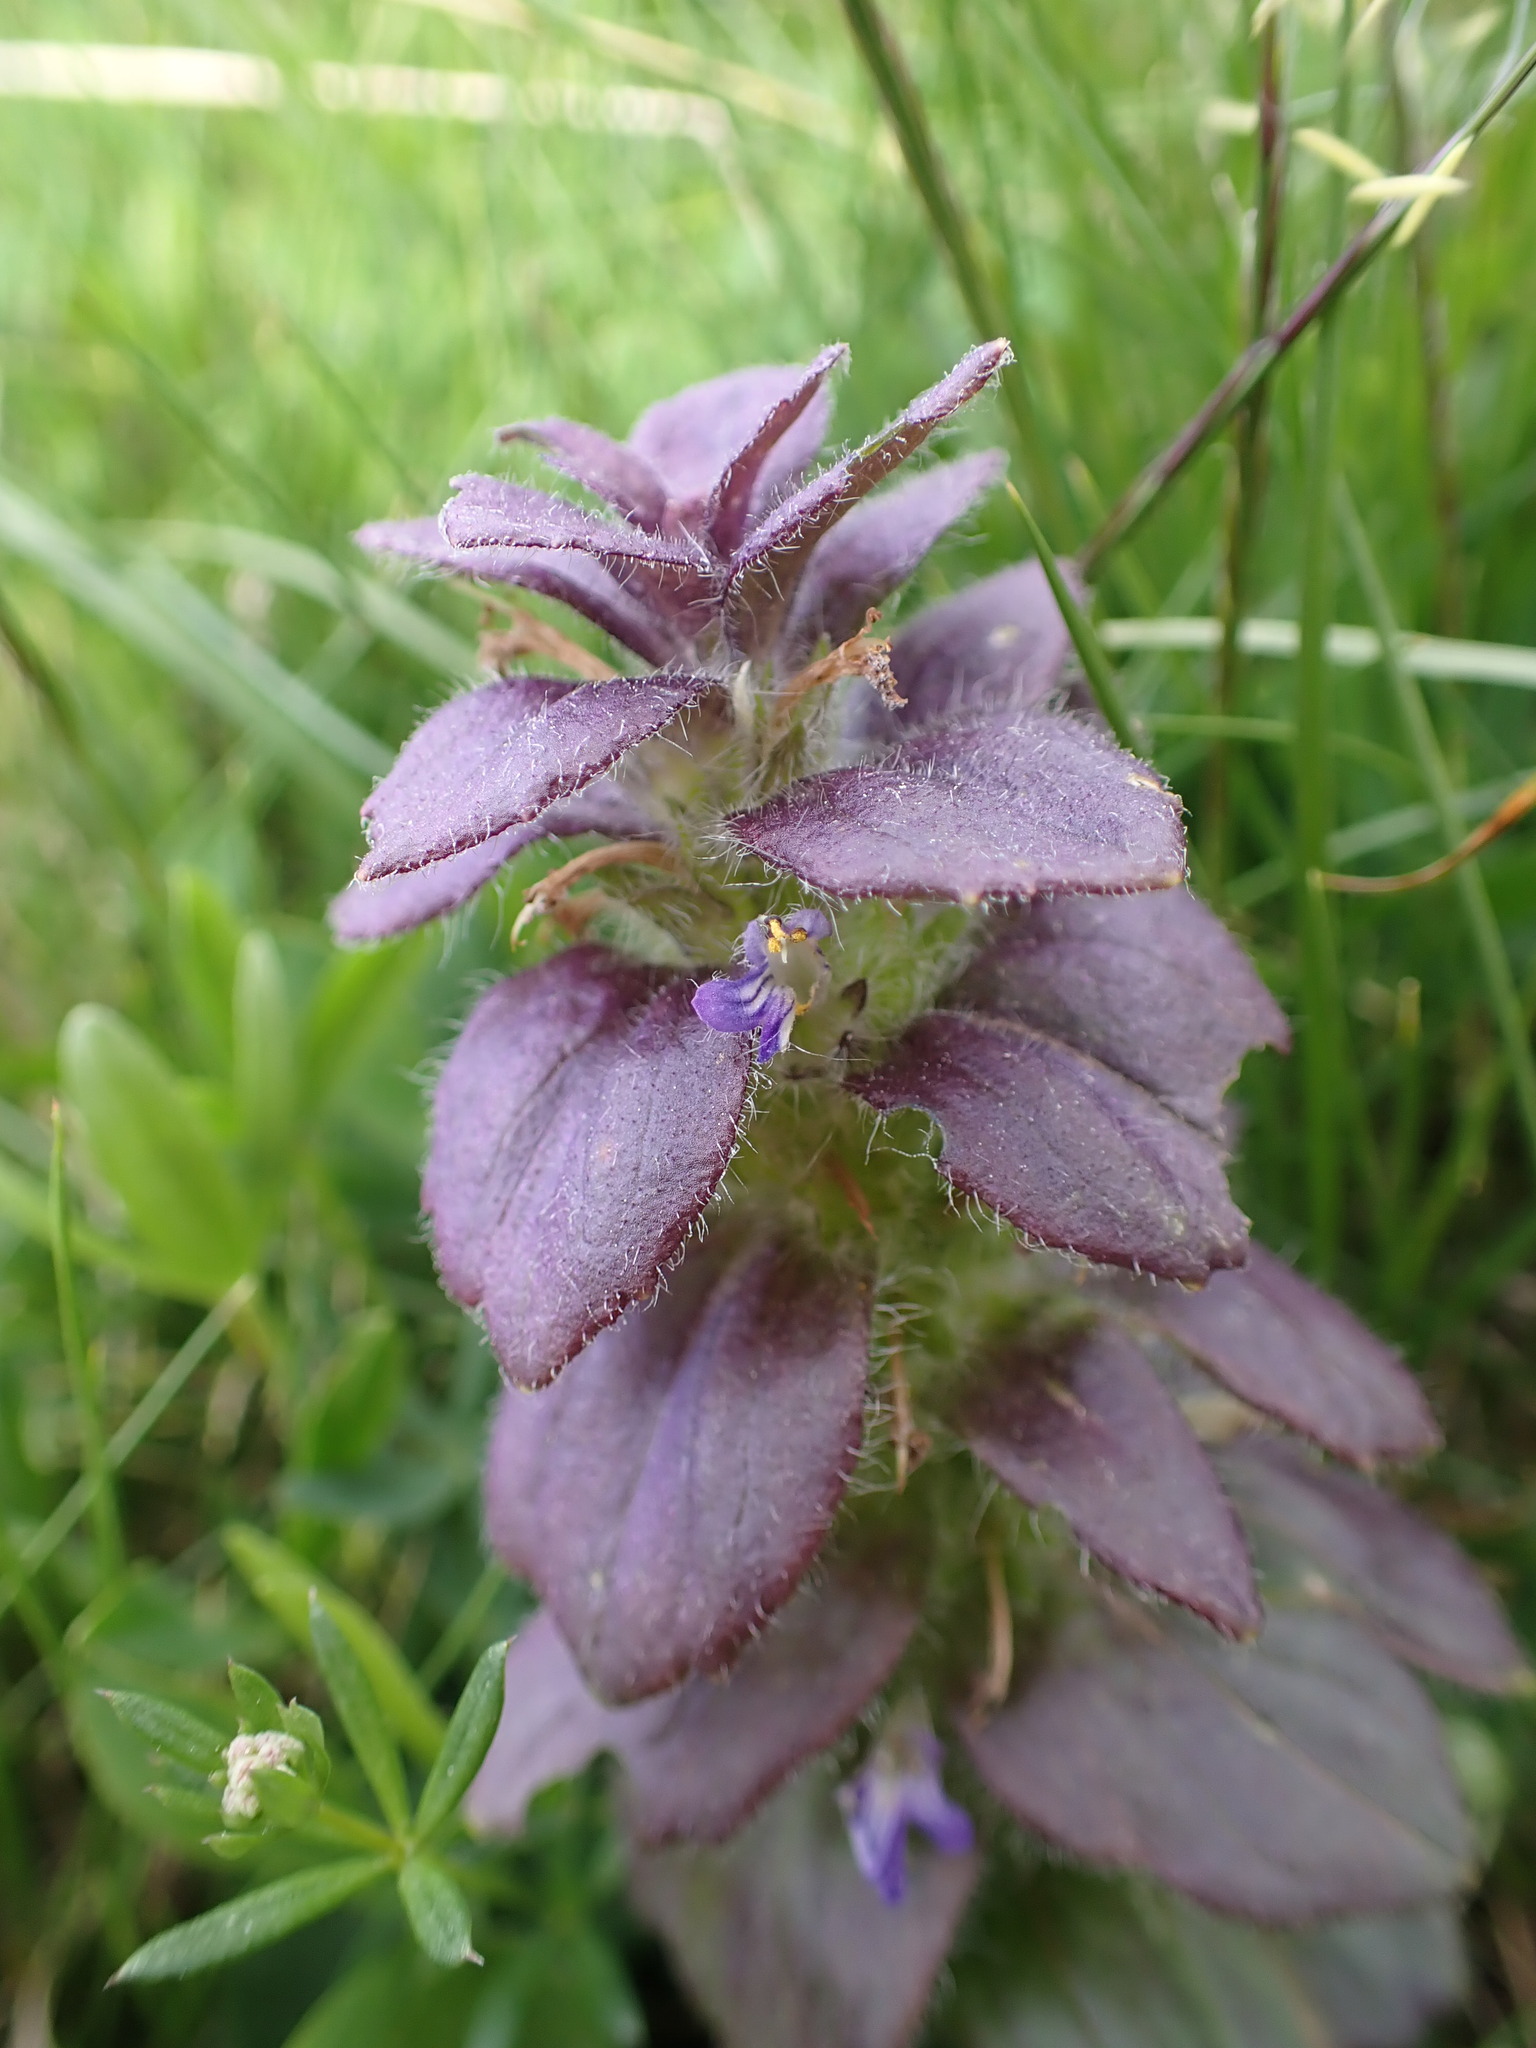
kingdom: Plantae
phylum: Tracheophyta
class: Magnoliopsida
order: Lamiales
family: Lamiaceae
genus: Ajuga
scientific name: Ajuga pyramidalis
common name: Pyramid bugle
